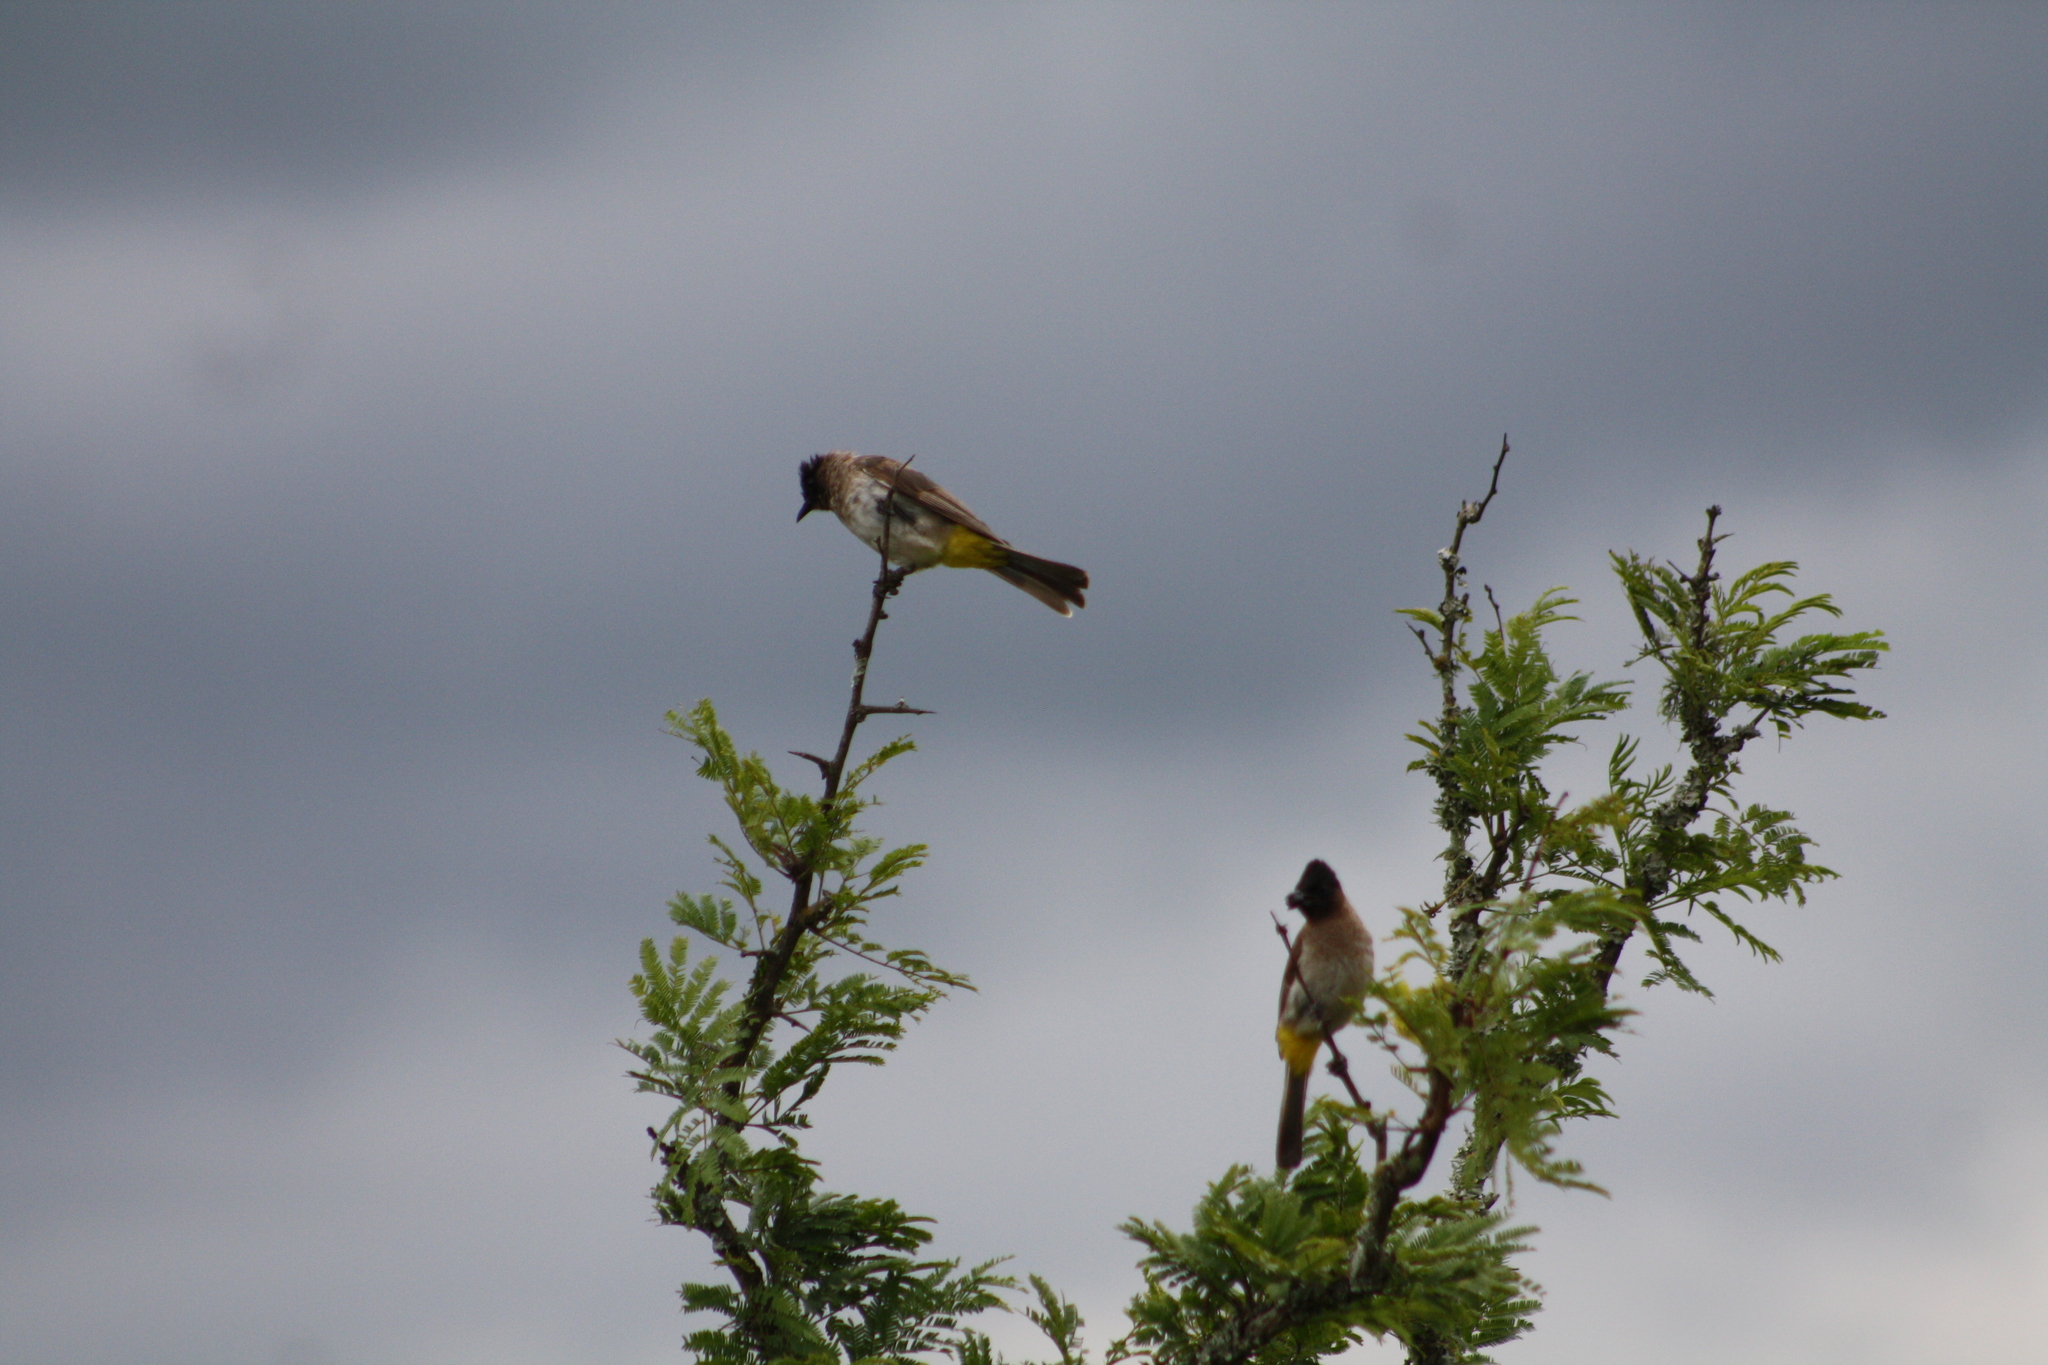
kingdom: Animalia
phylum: Chordata
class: Aves
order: Passeriformes
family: Pycnonotidae
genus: Pycnonotus
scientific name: Pycnonotus barbatus
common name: Common bulbul
